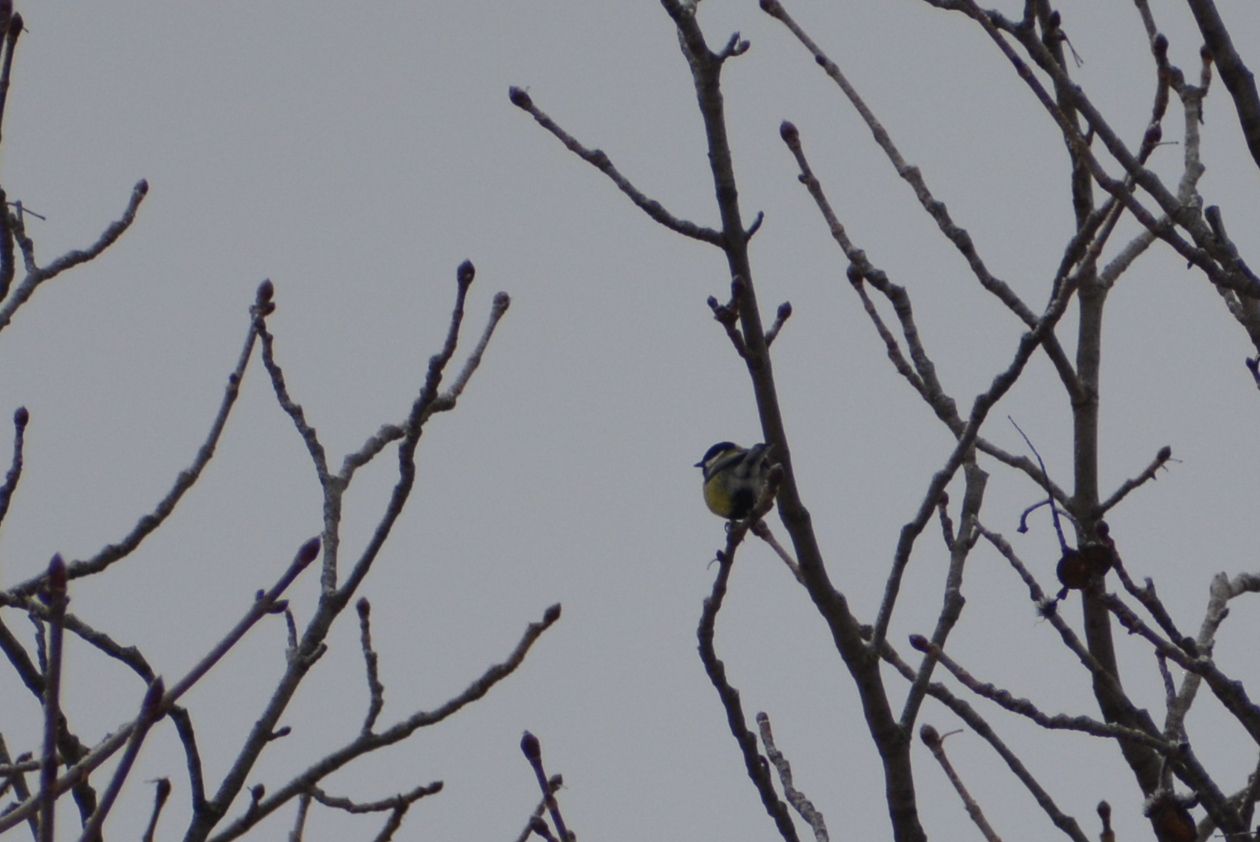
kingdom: Animalia
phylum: Chordata
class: Aves
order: Passeriformes
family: Paridae
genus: Parus
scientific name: Parus major
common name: Great tit
